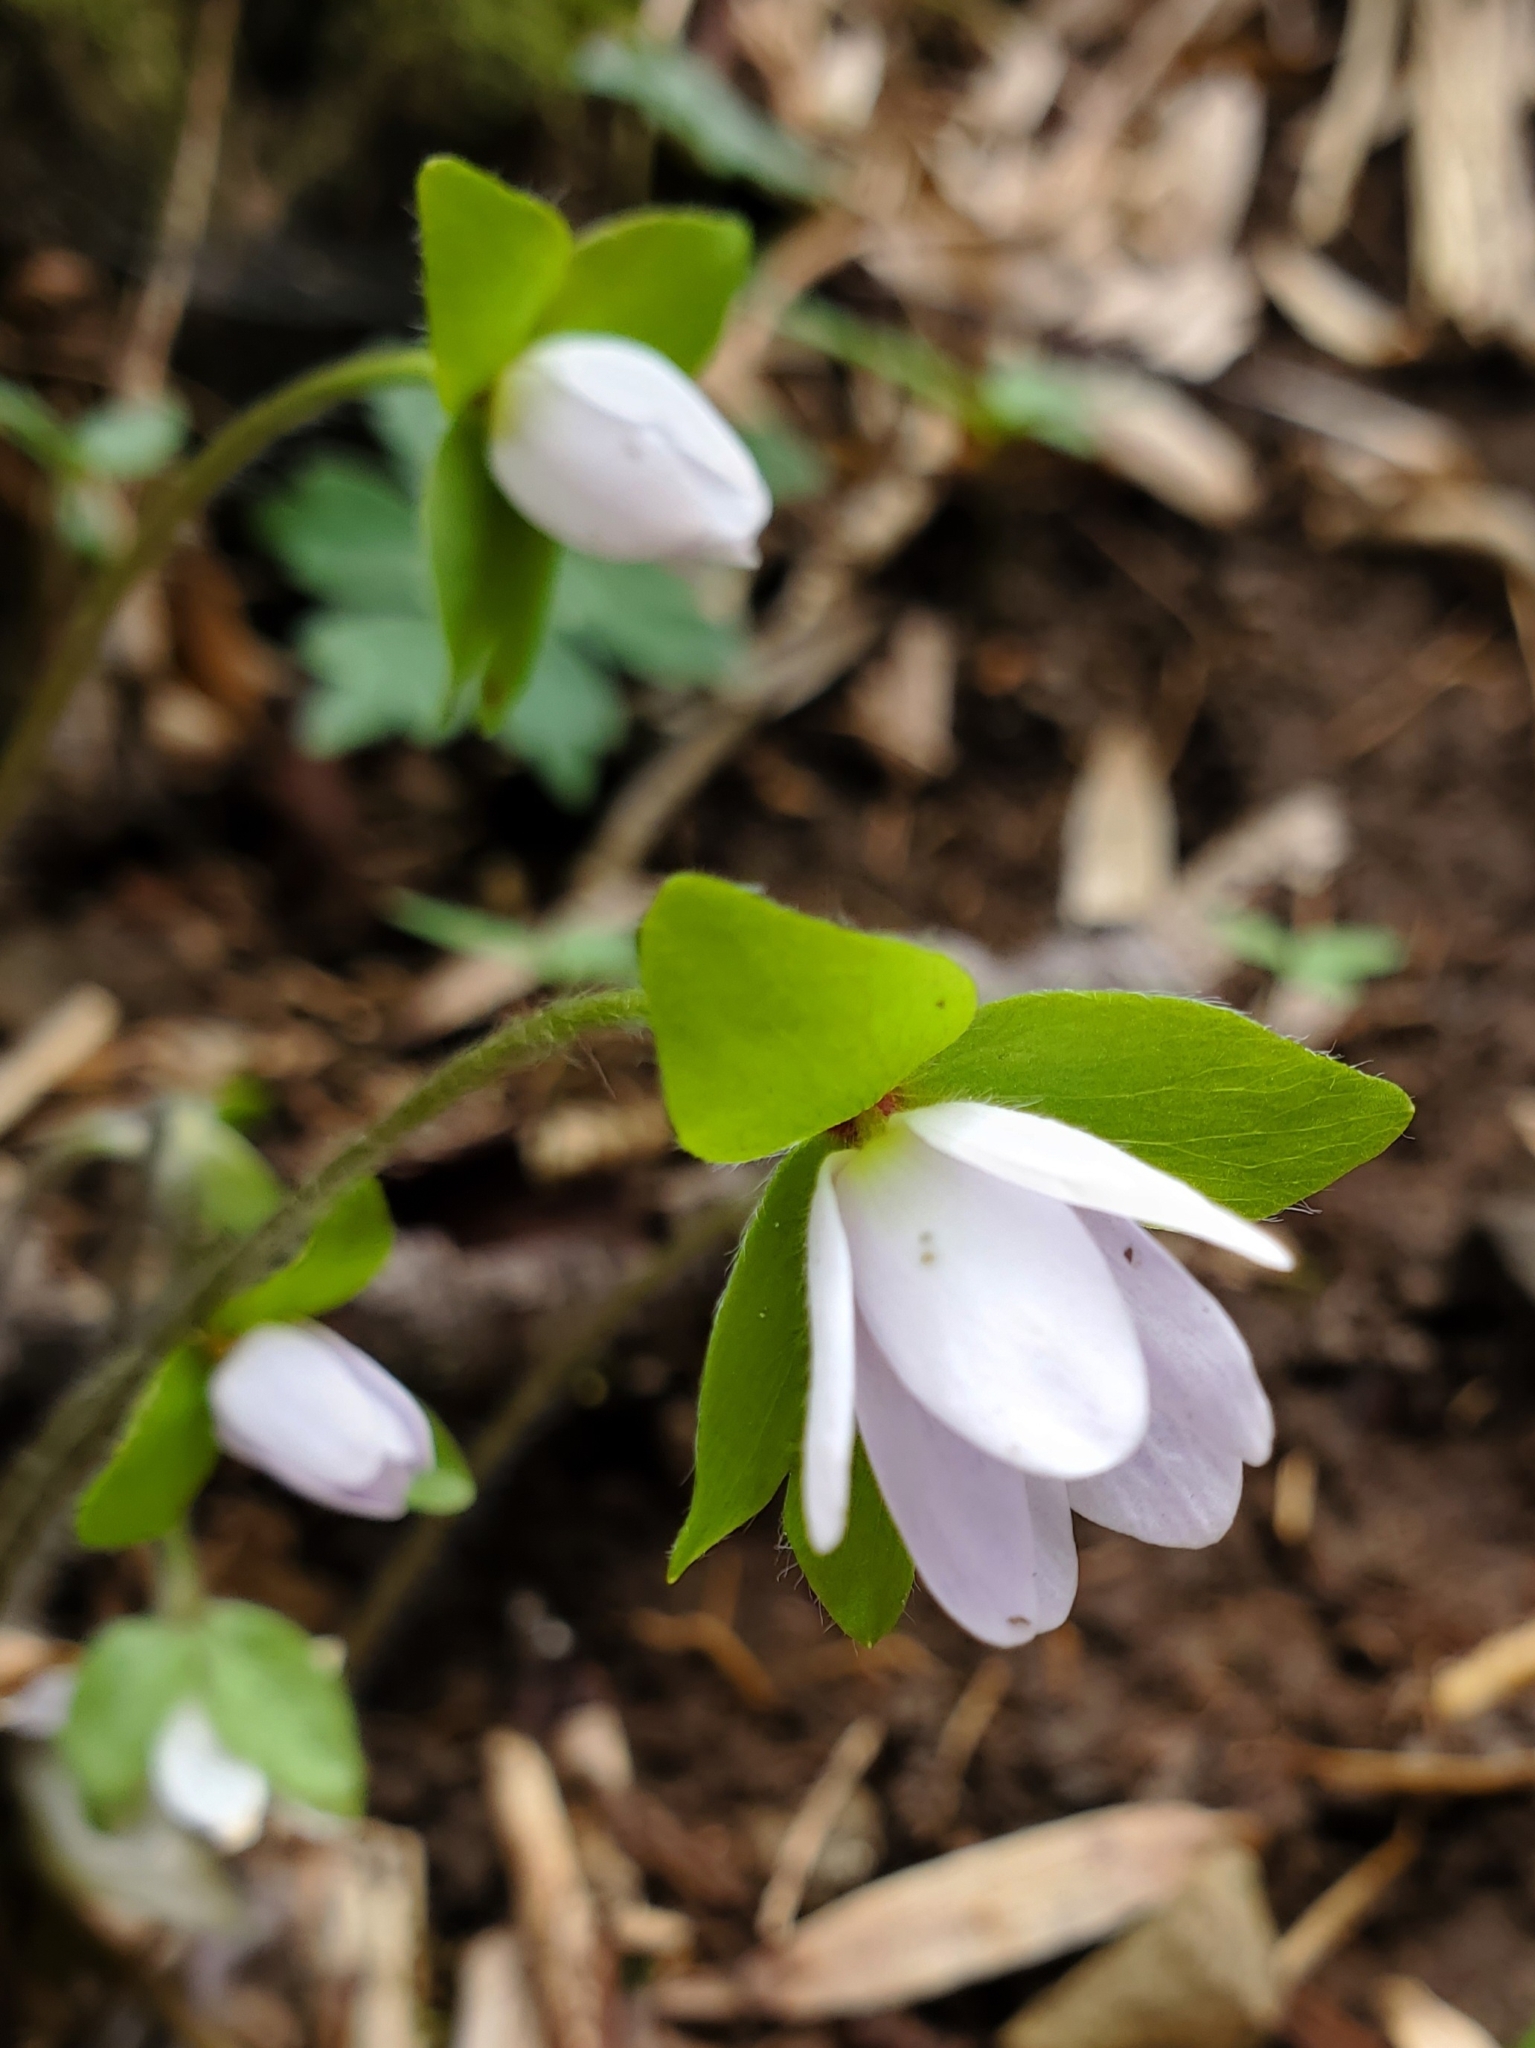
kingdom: Plantae
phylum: Tracheophyta
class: Magnoliopsida
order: Ranunculales
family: Ranunculaceae
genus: Hepatica
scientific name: Hepatica acutiloba
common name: Sharp-lobed hepatica
